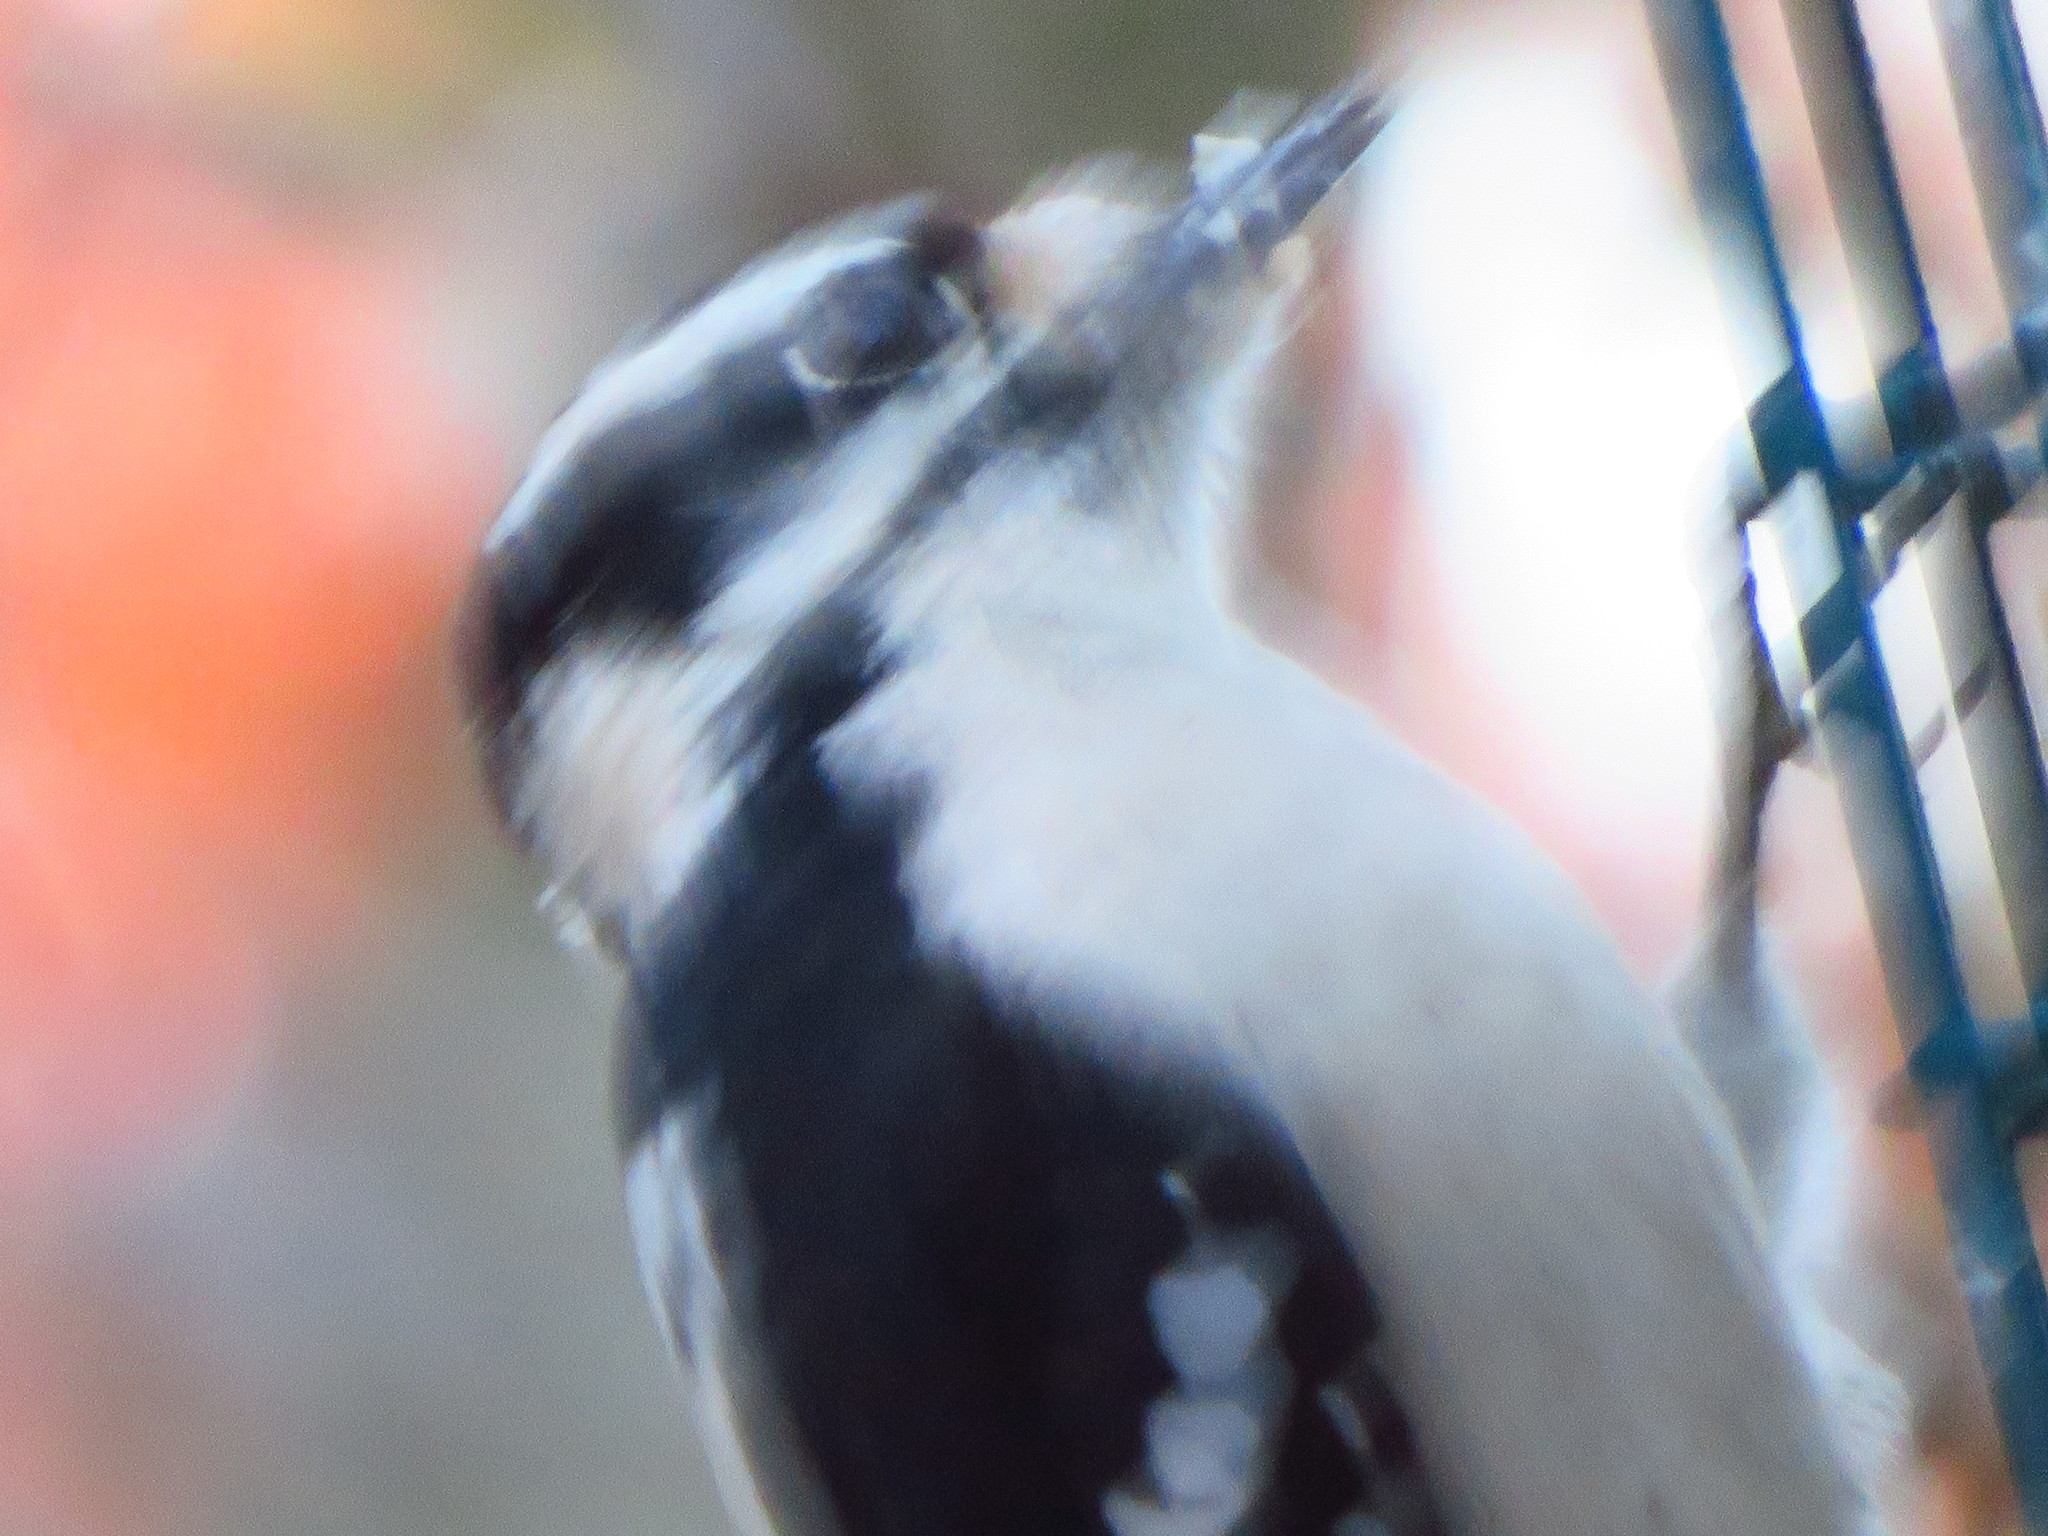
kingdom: Animalia
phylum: Chordata
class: Aves
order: Piciformes
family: Picidae
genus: Dryobates
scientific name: Dryobates pubescens
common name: Downy woodpecker
